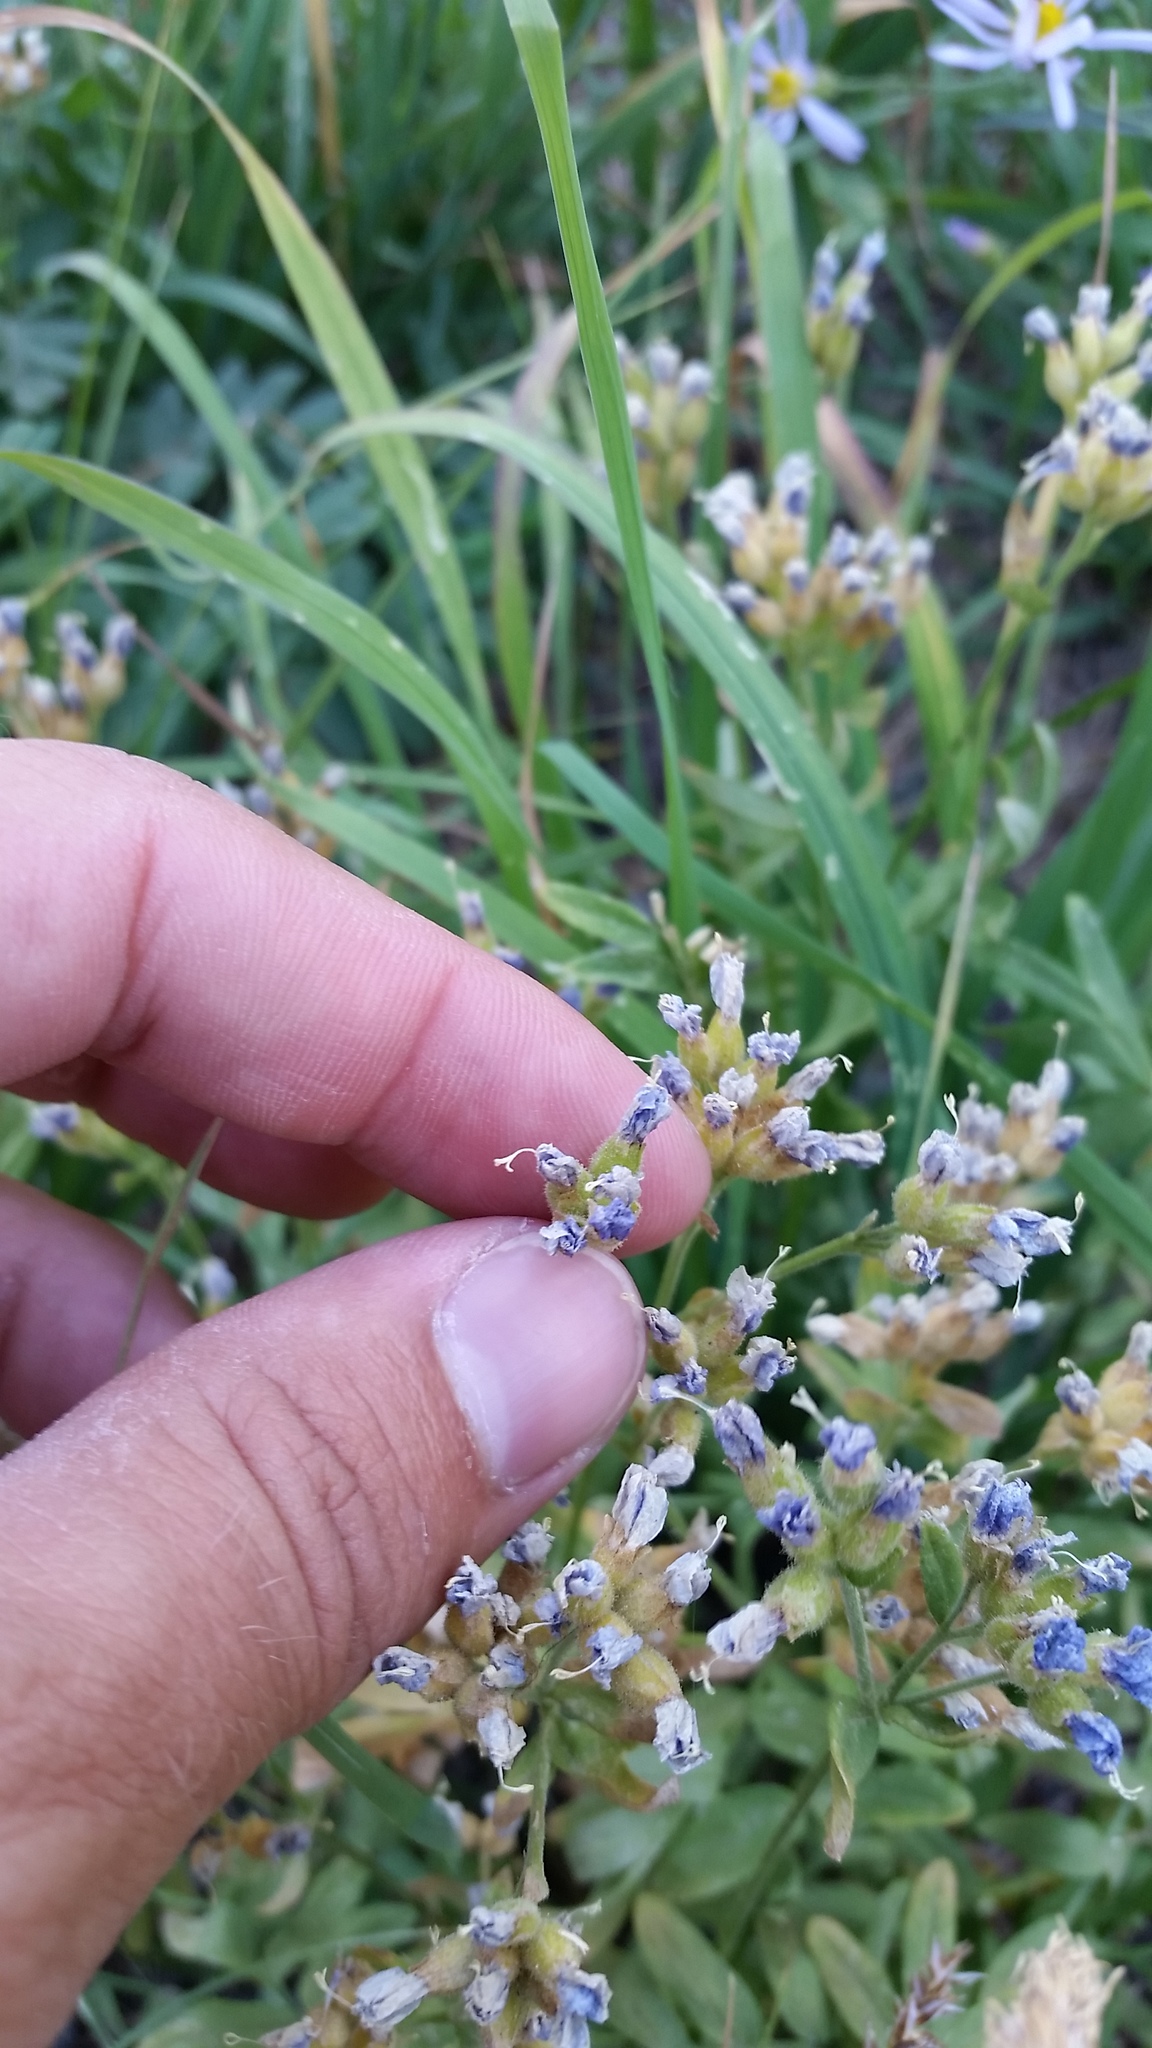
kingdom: Plantae
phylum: Tracheophyta
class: Magnoliopsida
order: Ericales
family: Polemoniaceae
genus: Polemonium
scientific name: Polemonium californicum
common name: California jacob's ladder
